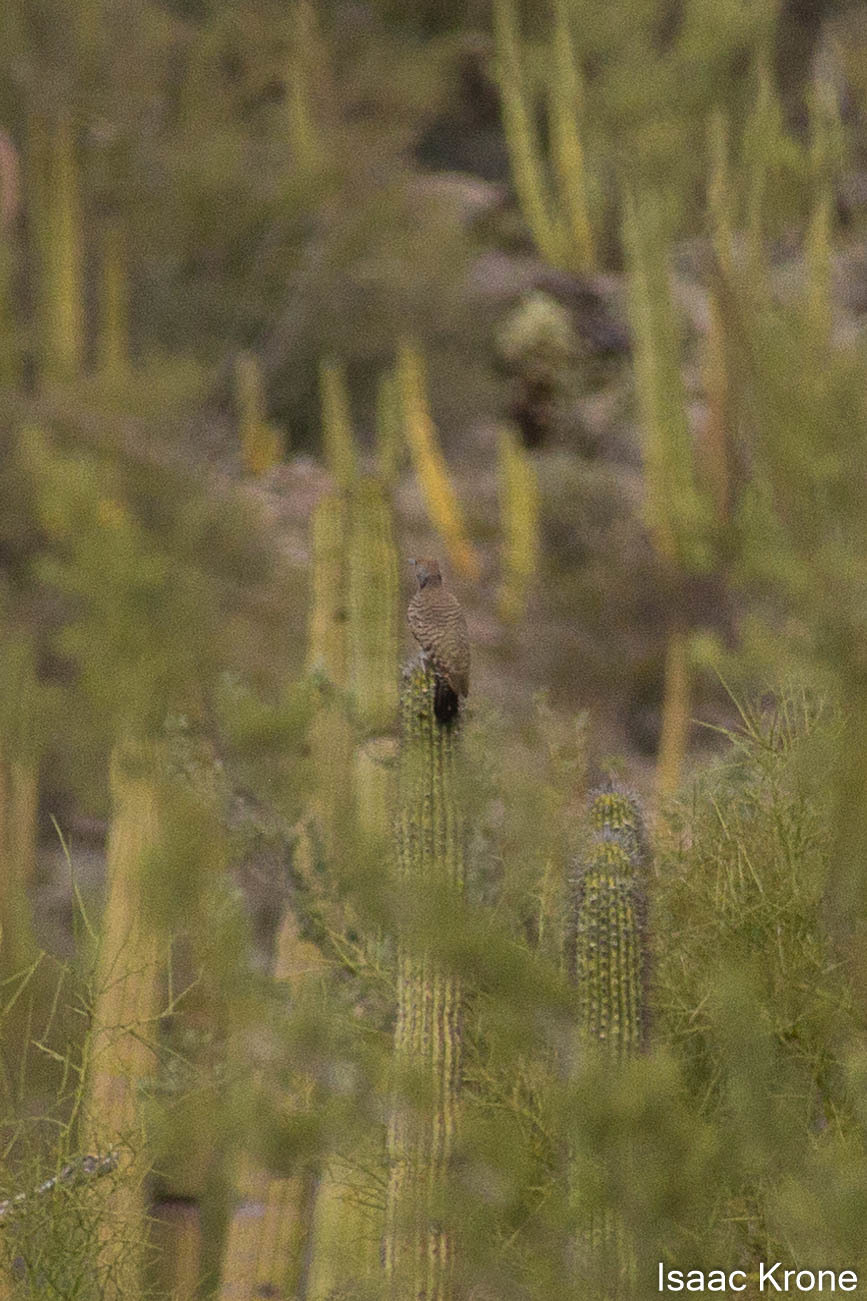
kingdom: Animalia
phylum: Chordata
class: Aves
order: Piciformes
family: Picidae
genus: Colaptes
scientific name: Colaptes chrysoides
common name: Gilded flicker
